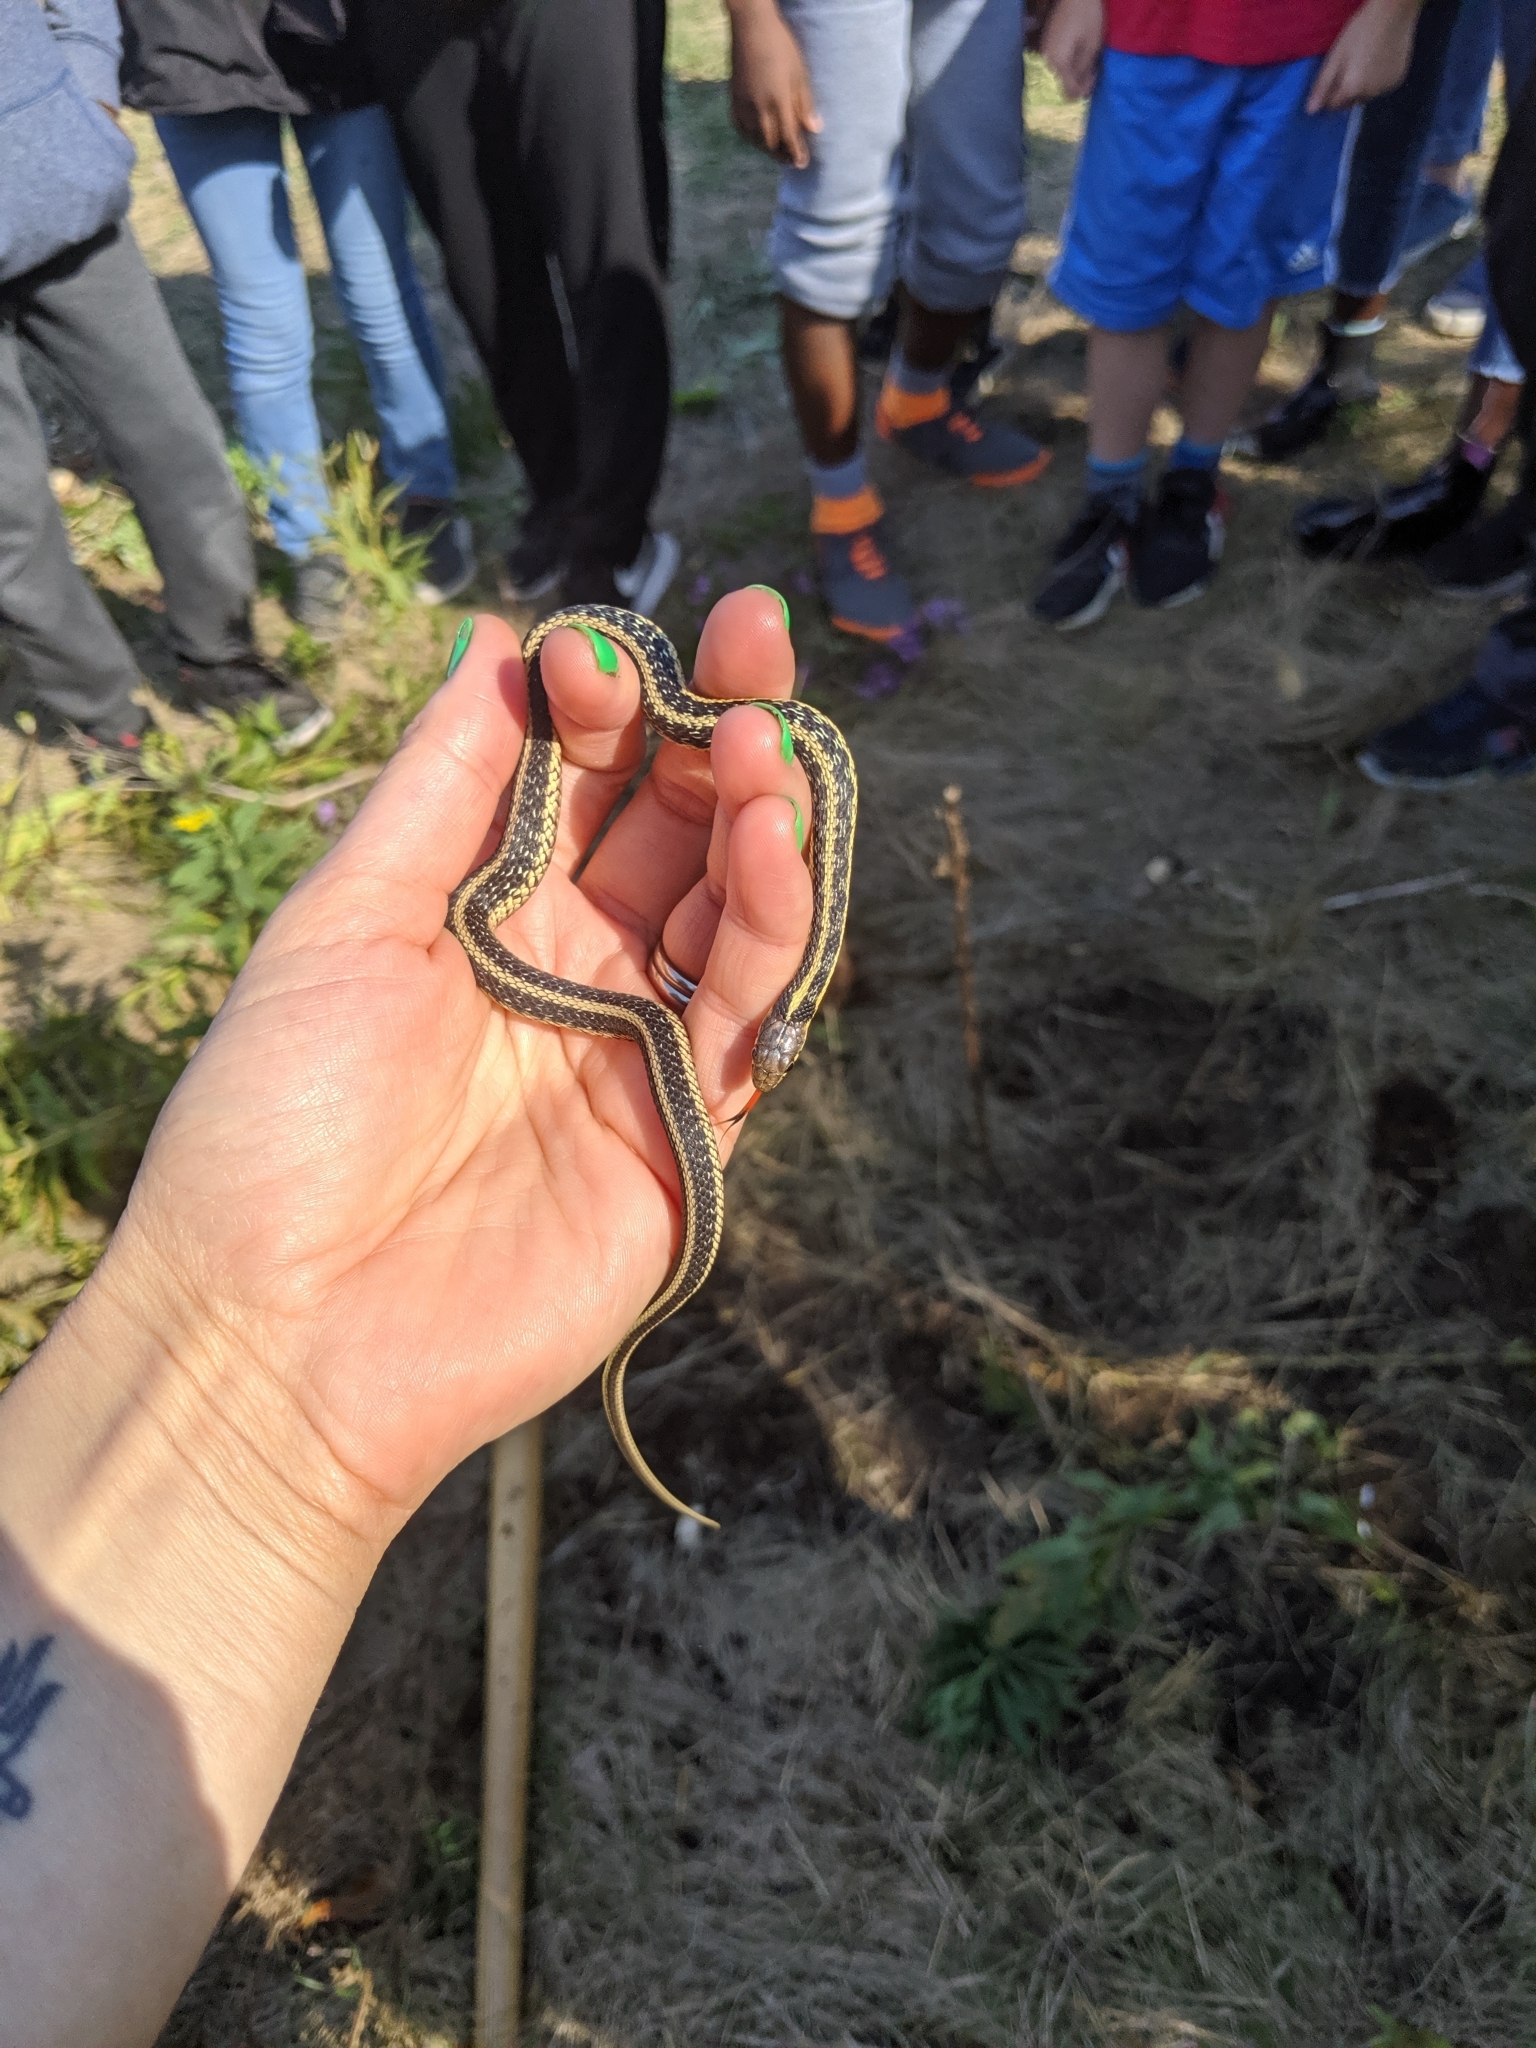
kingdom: Animalia
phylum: Chordata
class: Squamata
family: Colubridae
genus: Thamnophis
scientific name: Thamnophis sirtalis
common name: Common garter snake
